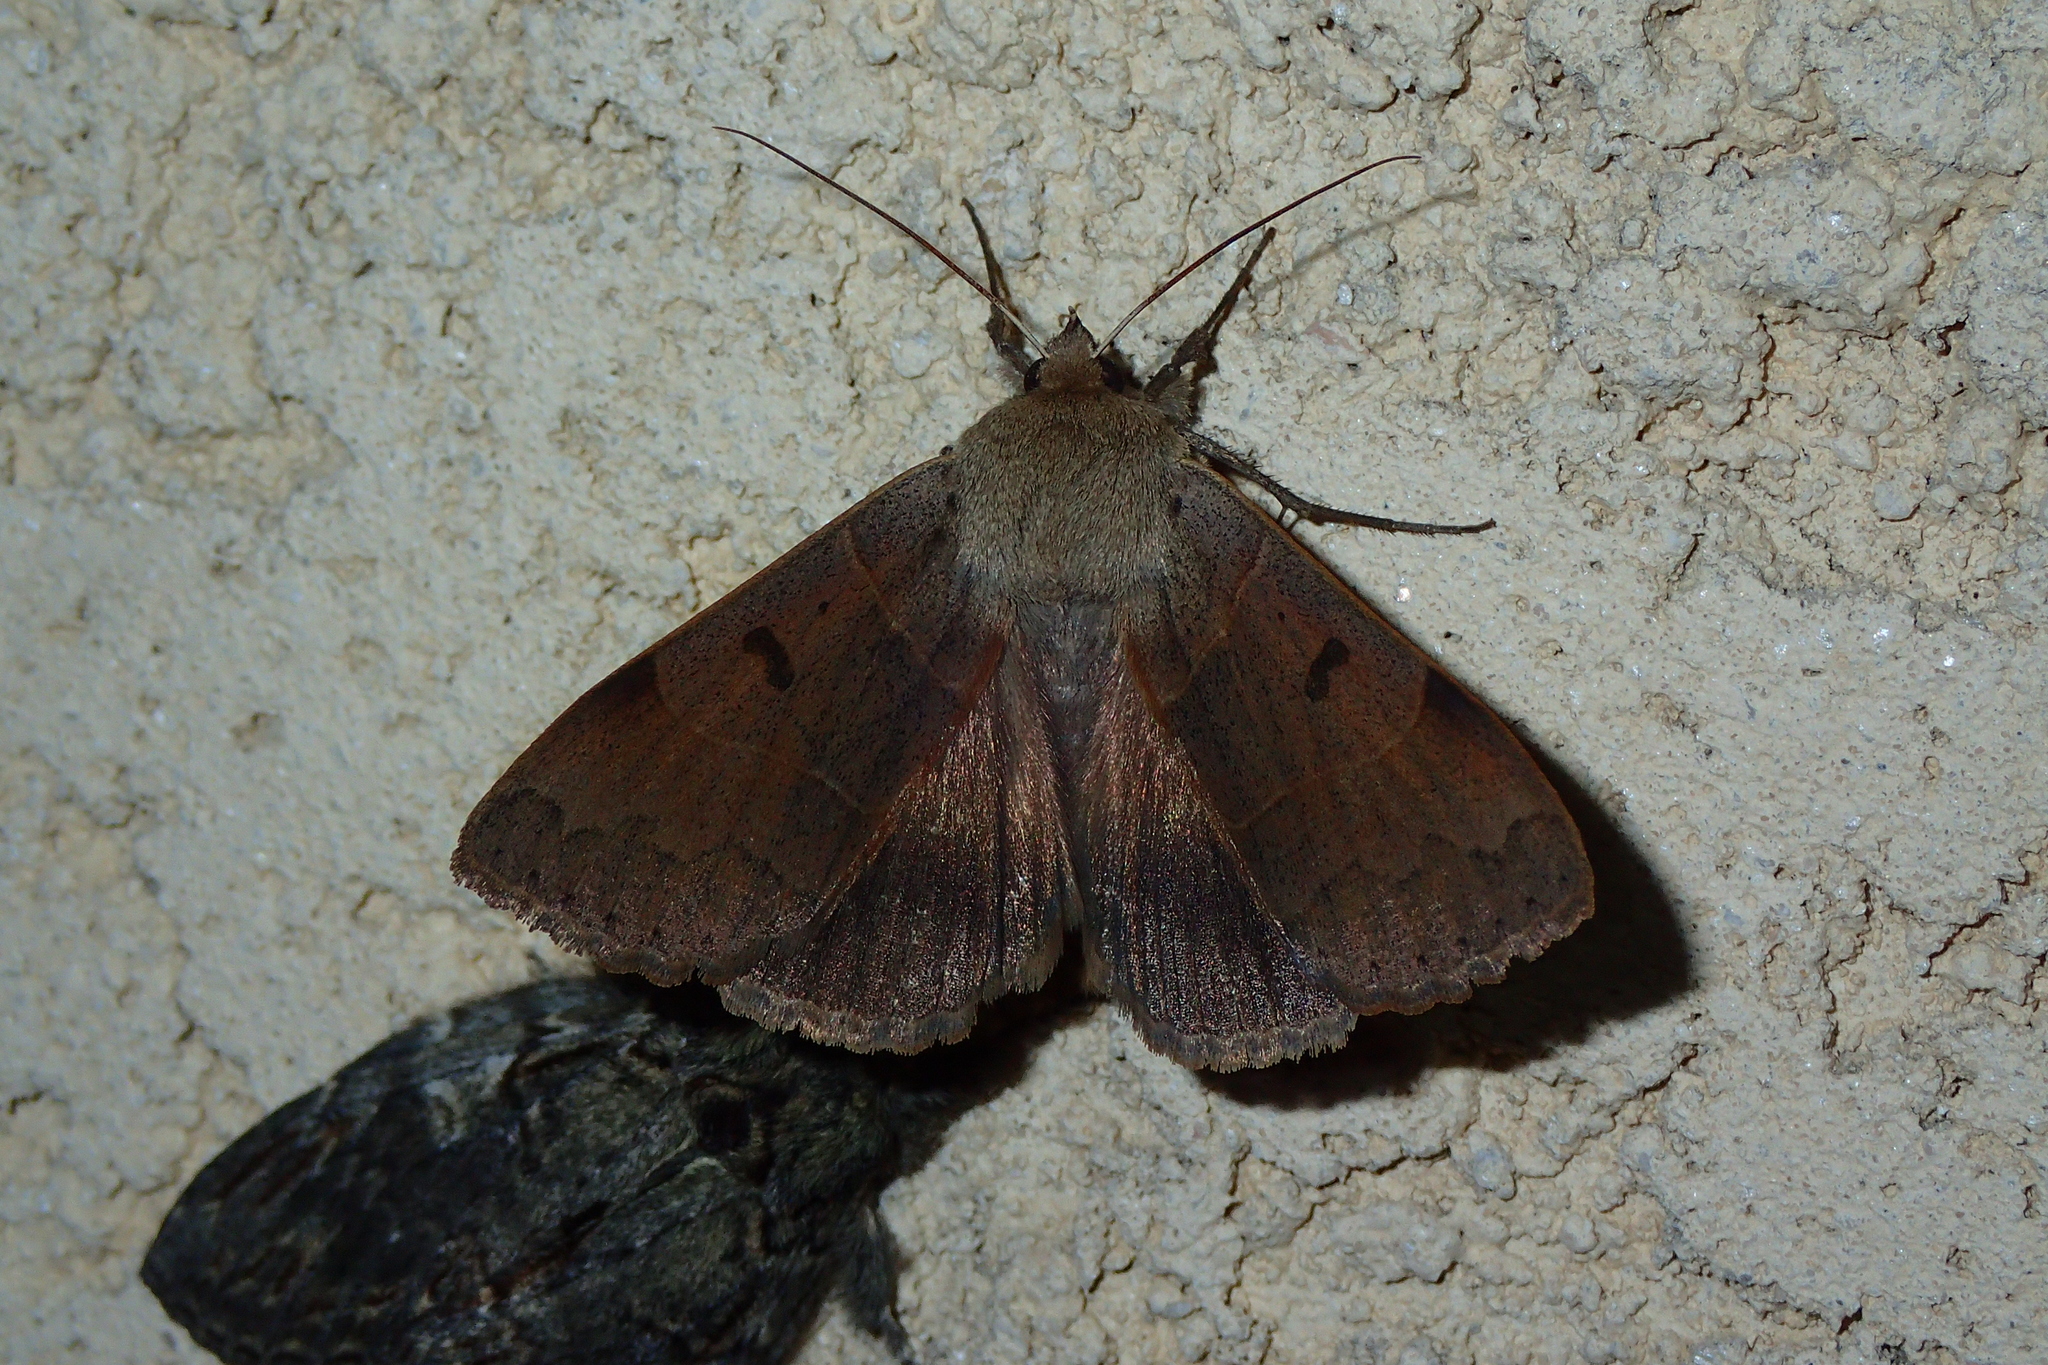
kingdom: Animalia
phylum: Arthropoda
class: Insecta
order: Lepidoptera
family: Erebidae
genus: Minucia
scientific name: Minucia lunaris
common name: Lunar double-stripe
